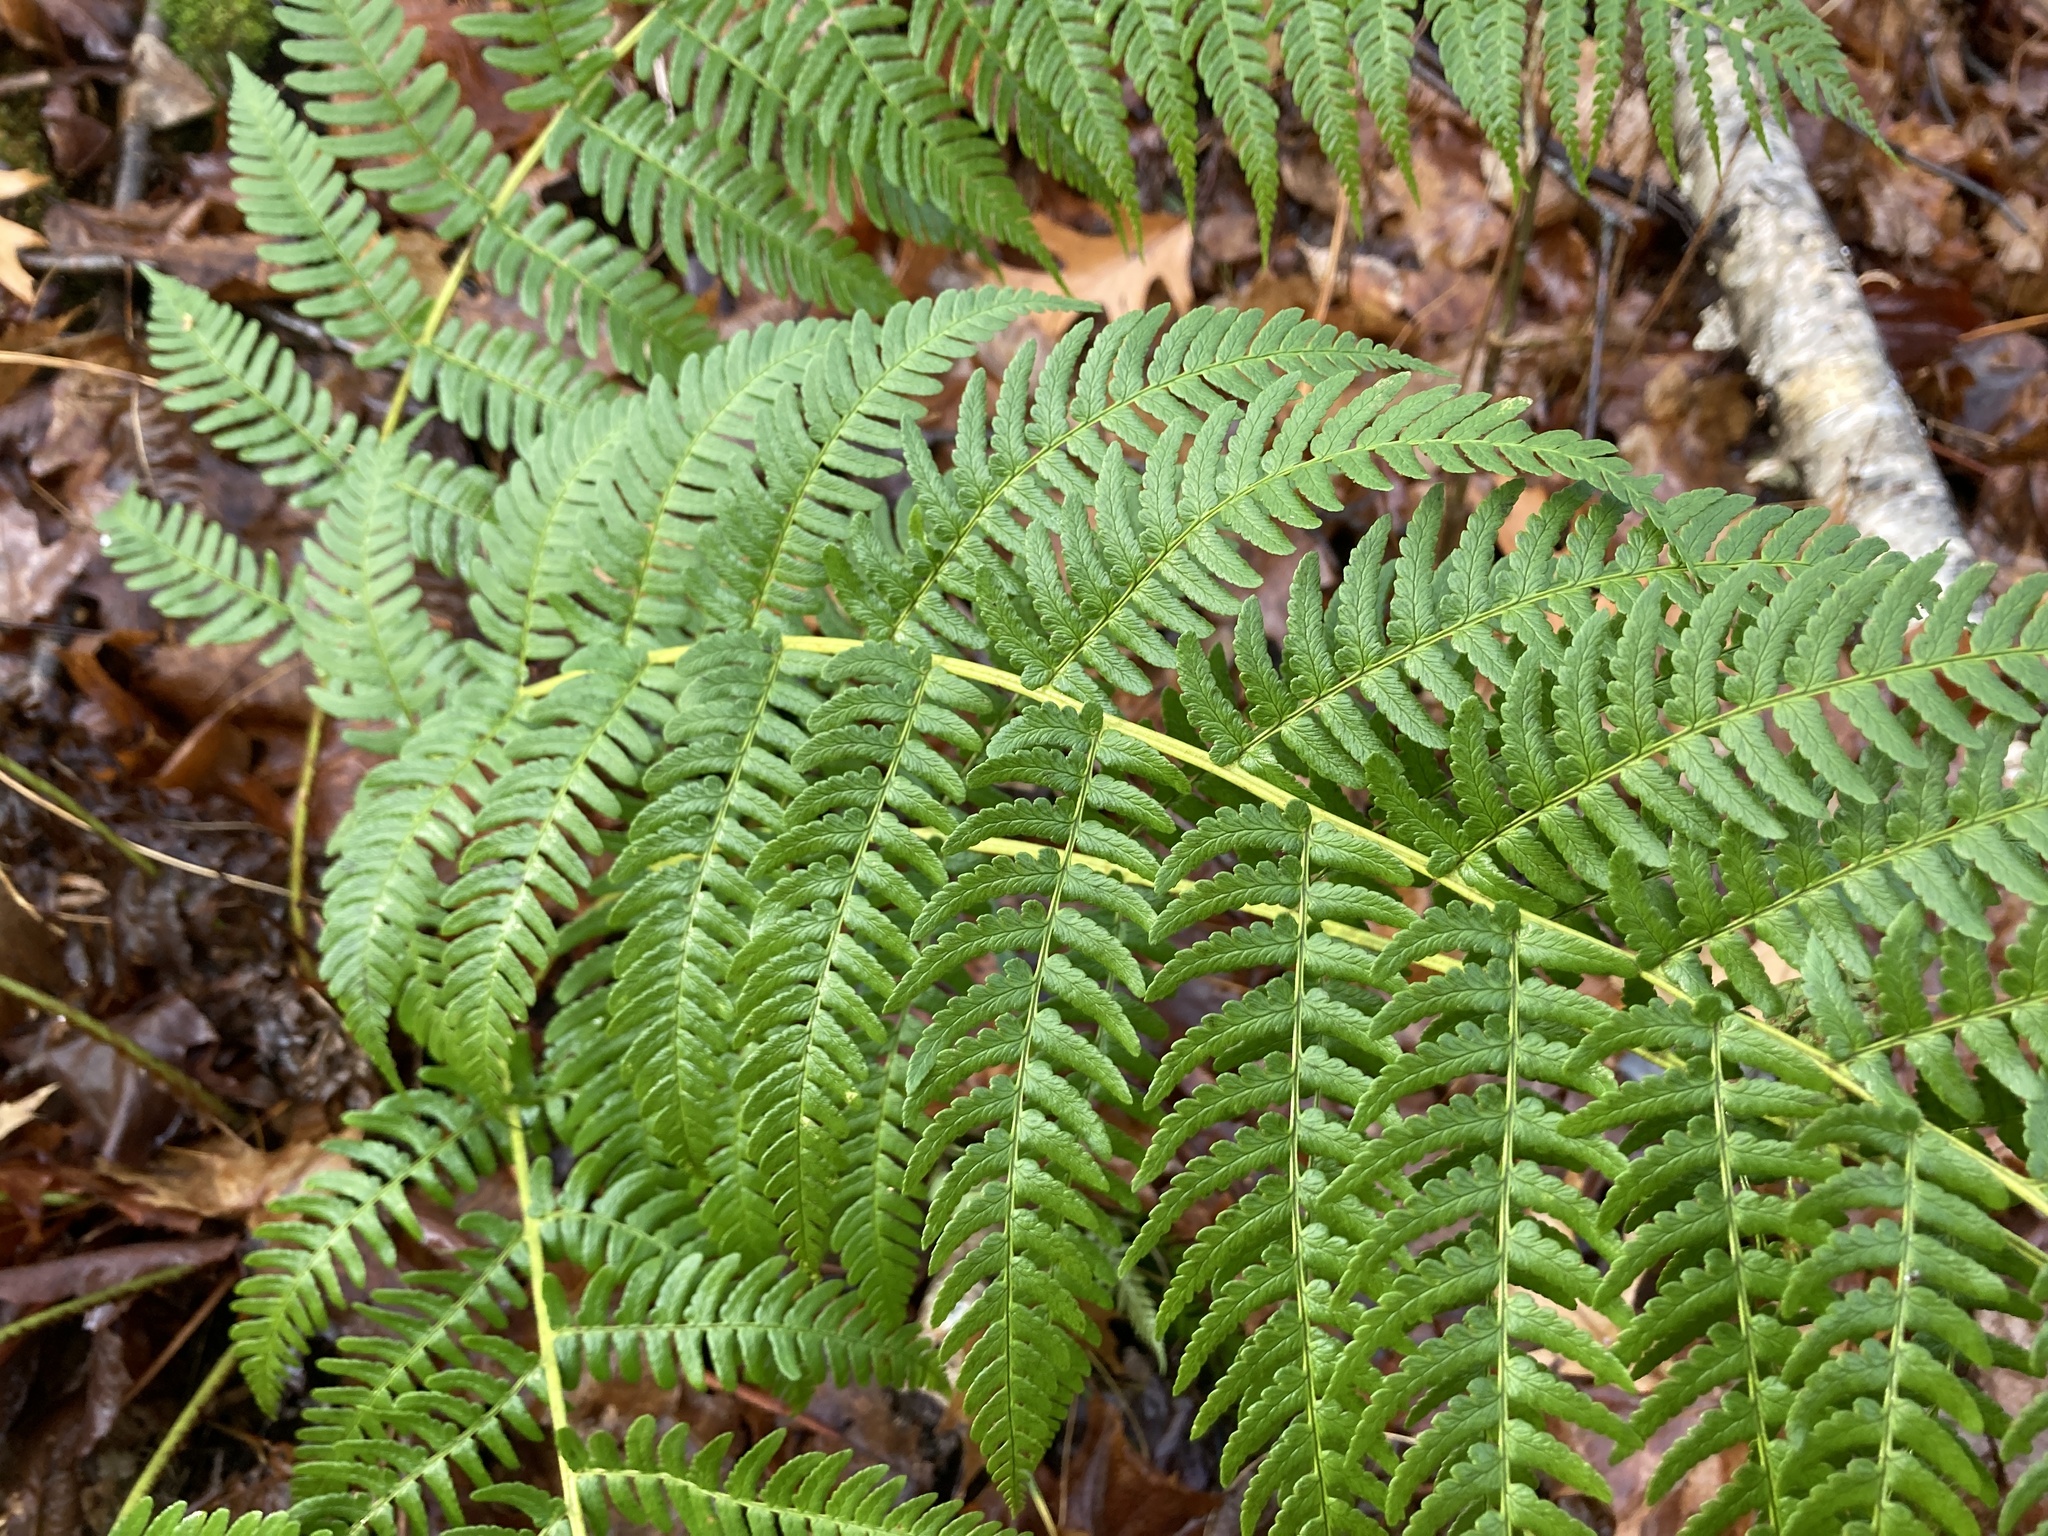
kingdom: Plantae
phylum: Tracheophyta
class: Polypodiopsida
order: Polypodiales
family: Dryopteridaceae
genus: Dryopteris
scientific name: Dryopteris marginalis
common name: Marginal wood fern
